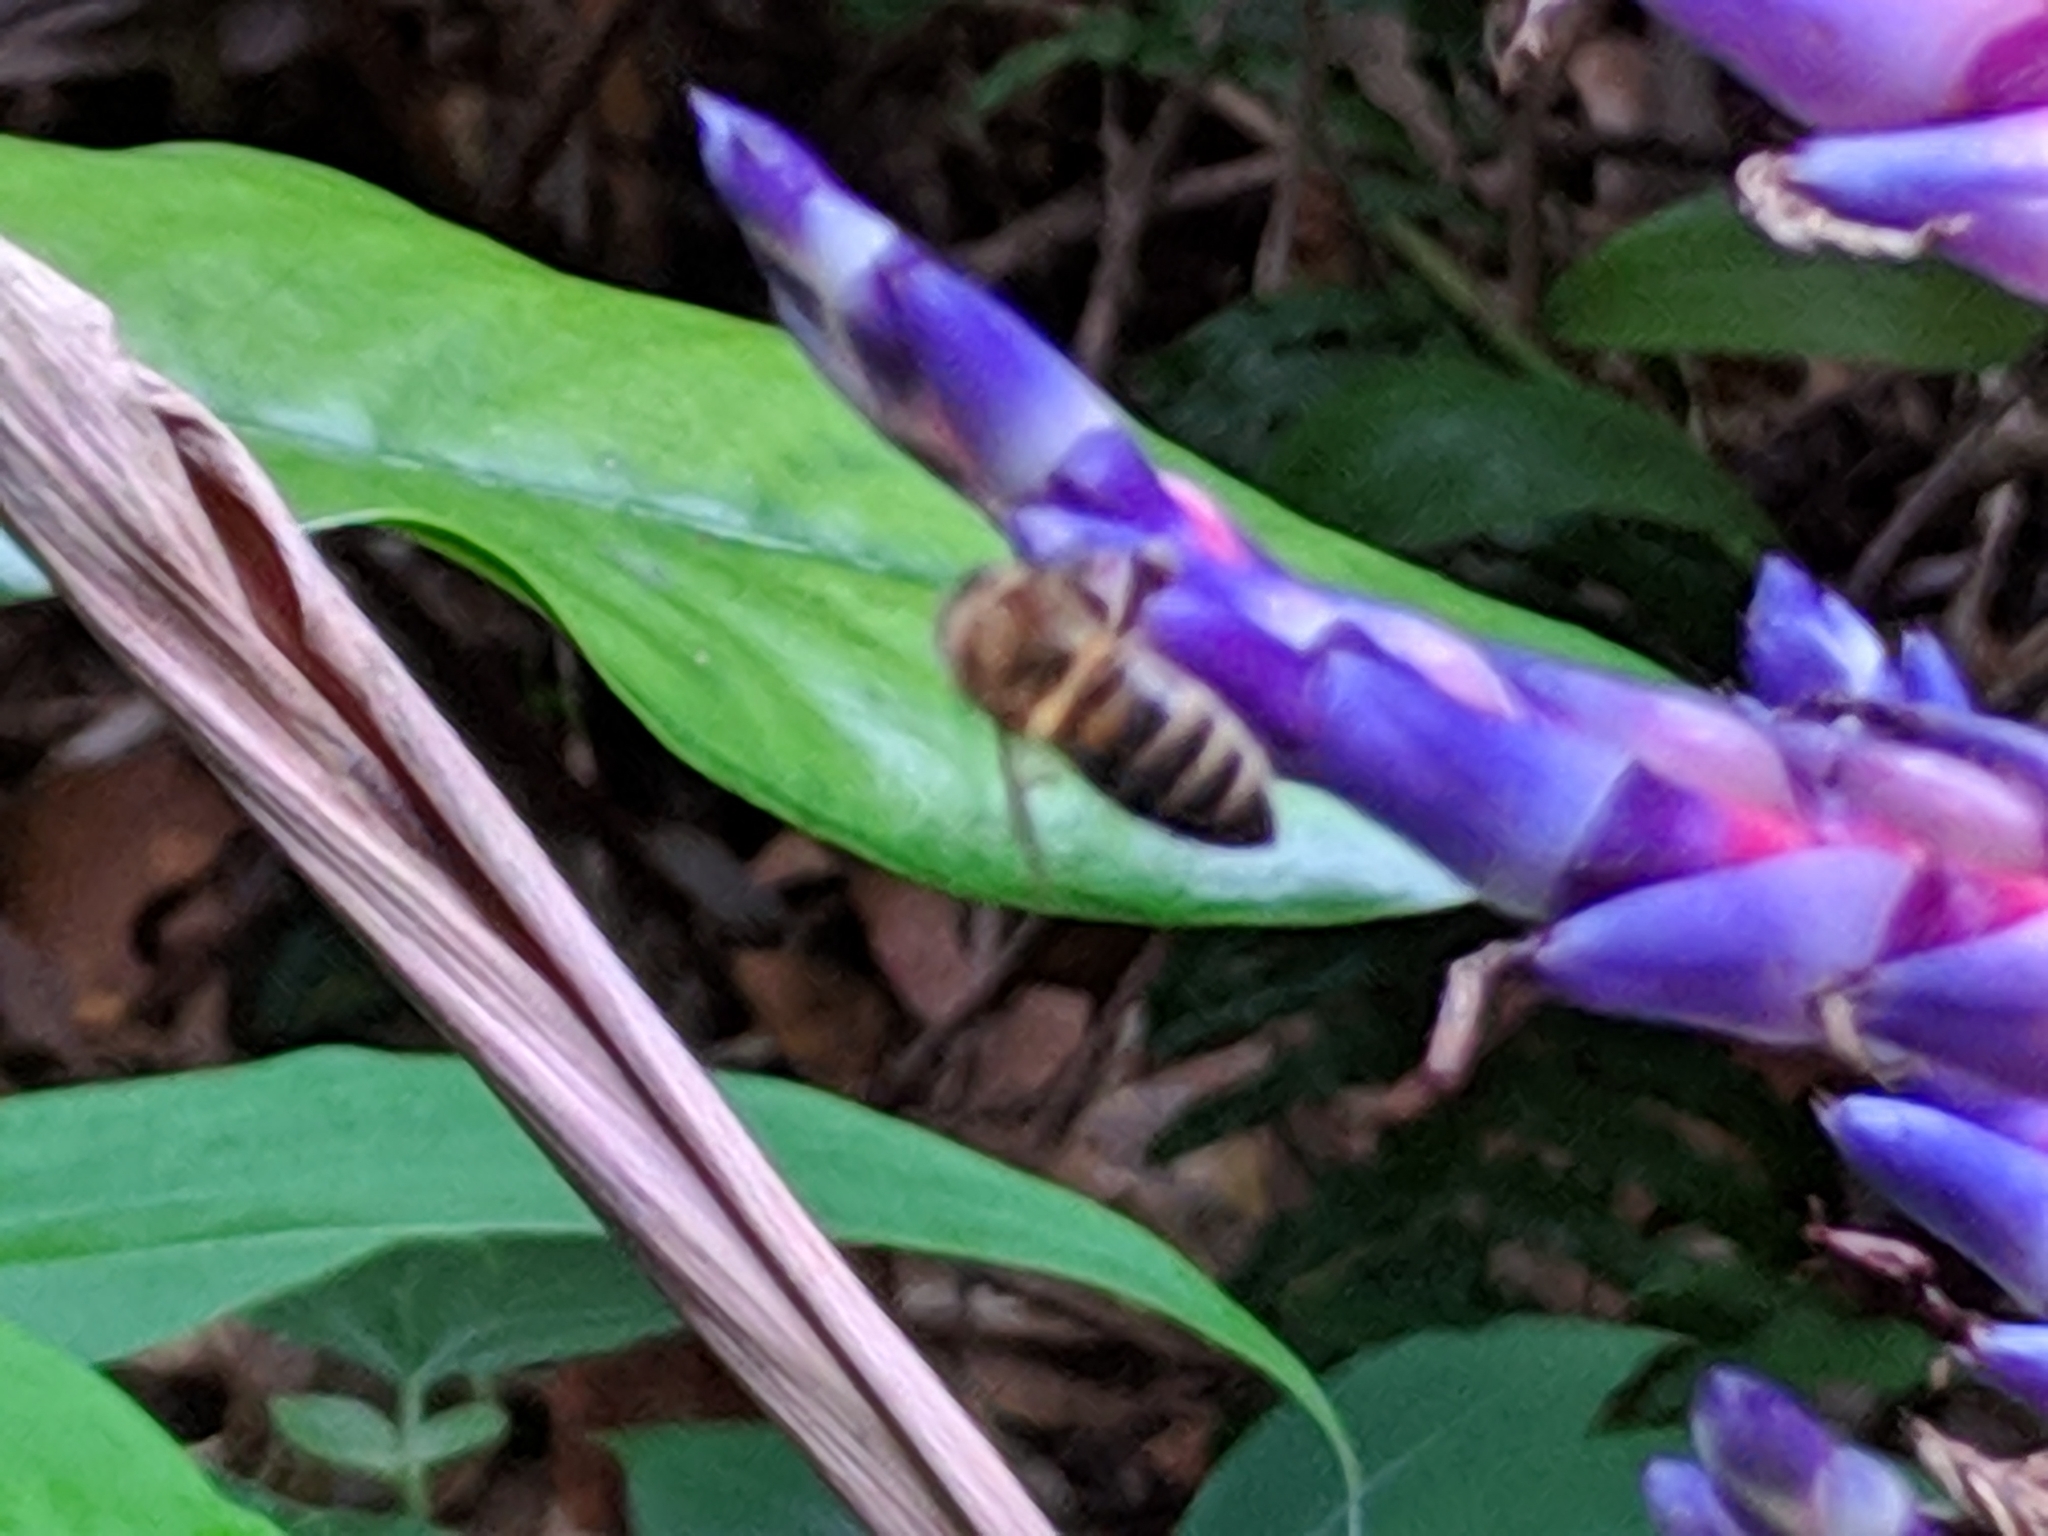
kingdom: Animalia
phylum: Arthropoda
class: Insecta
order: Hymenoptera
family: Apidae
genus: Apis
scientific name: Apis mellifera
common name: Honey bee
